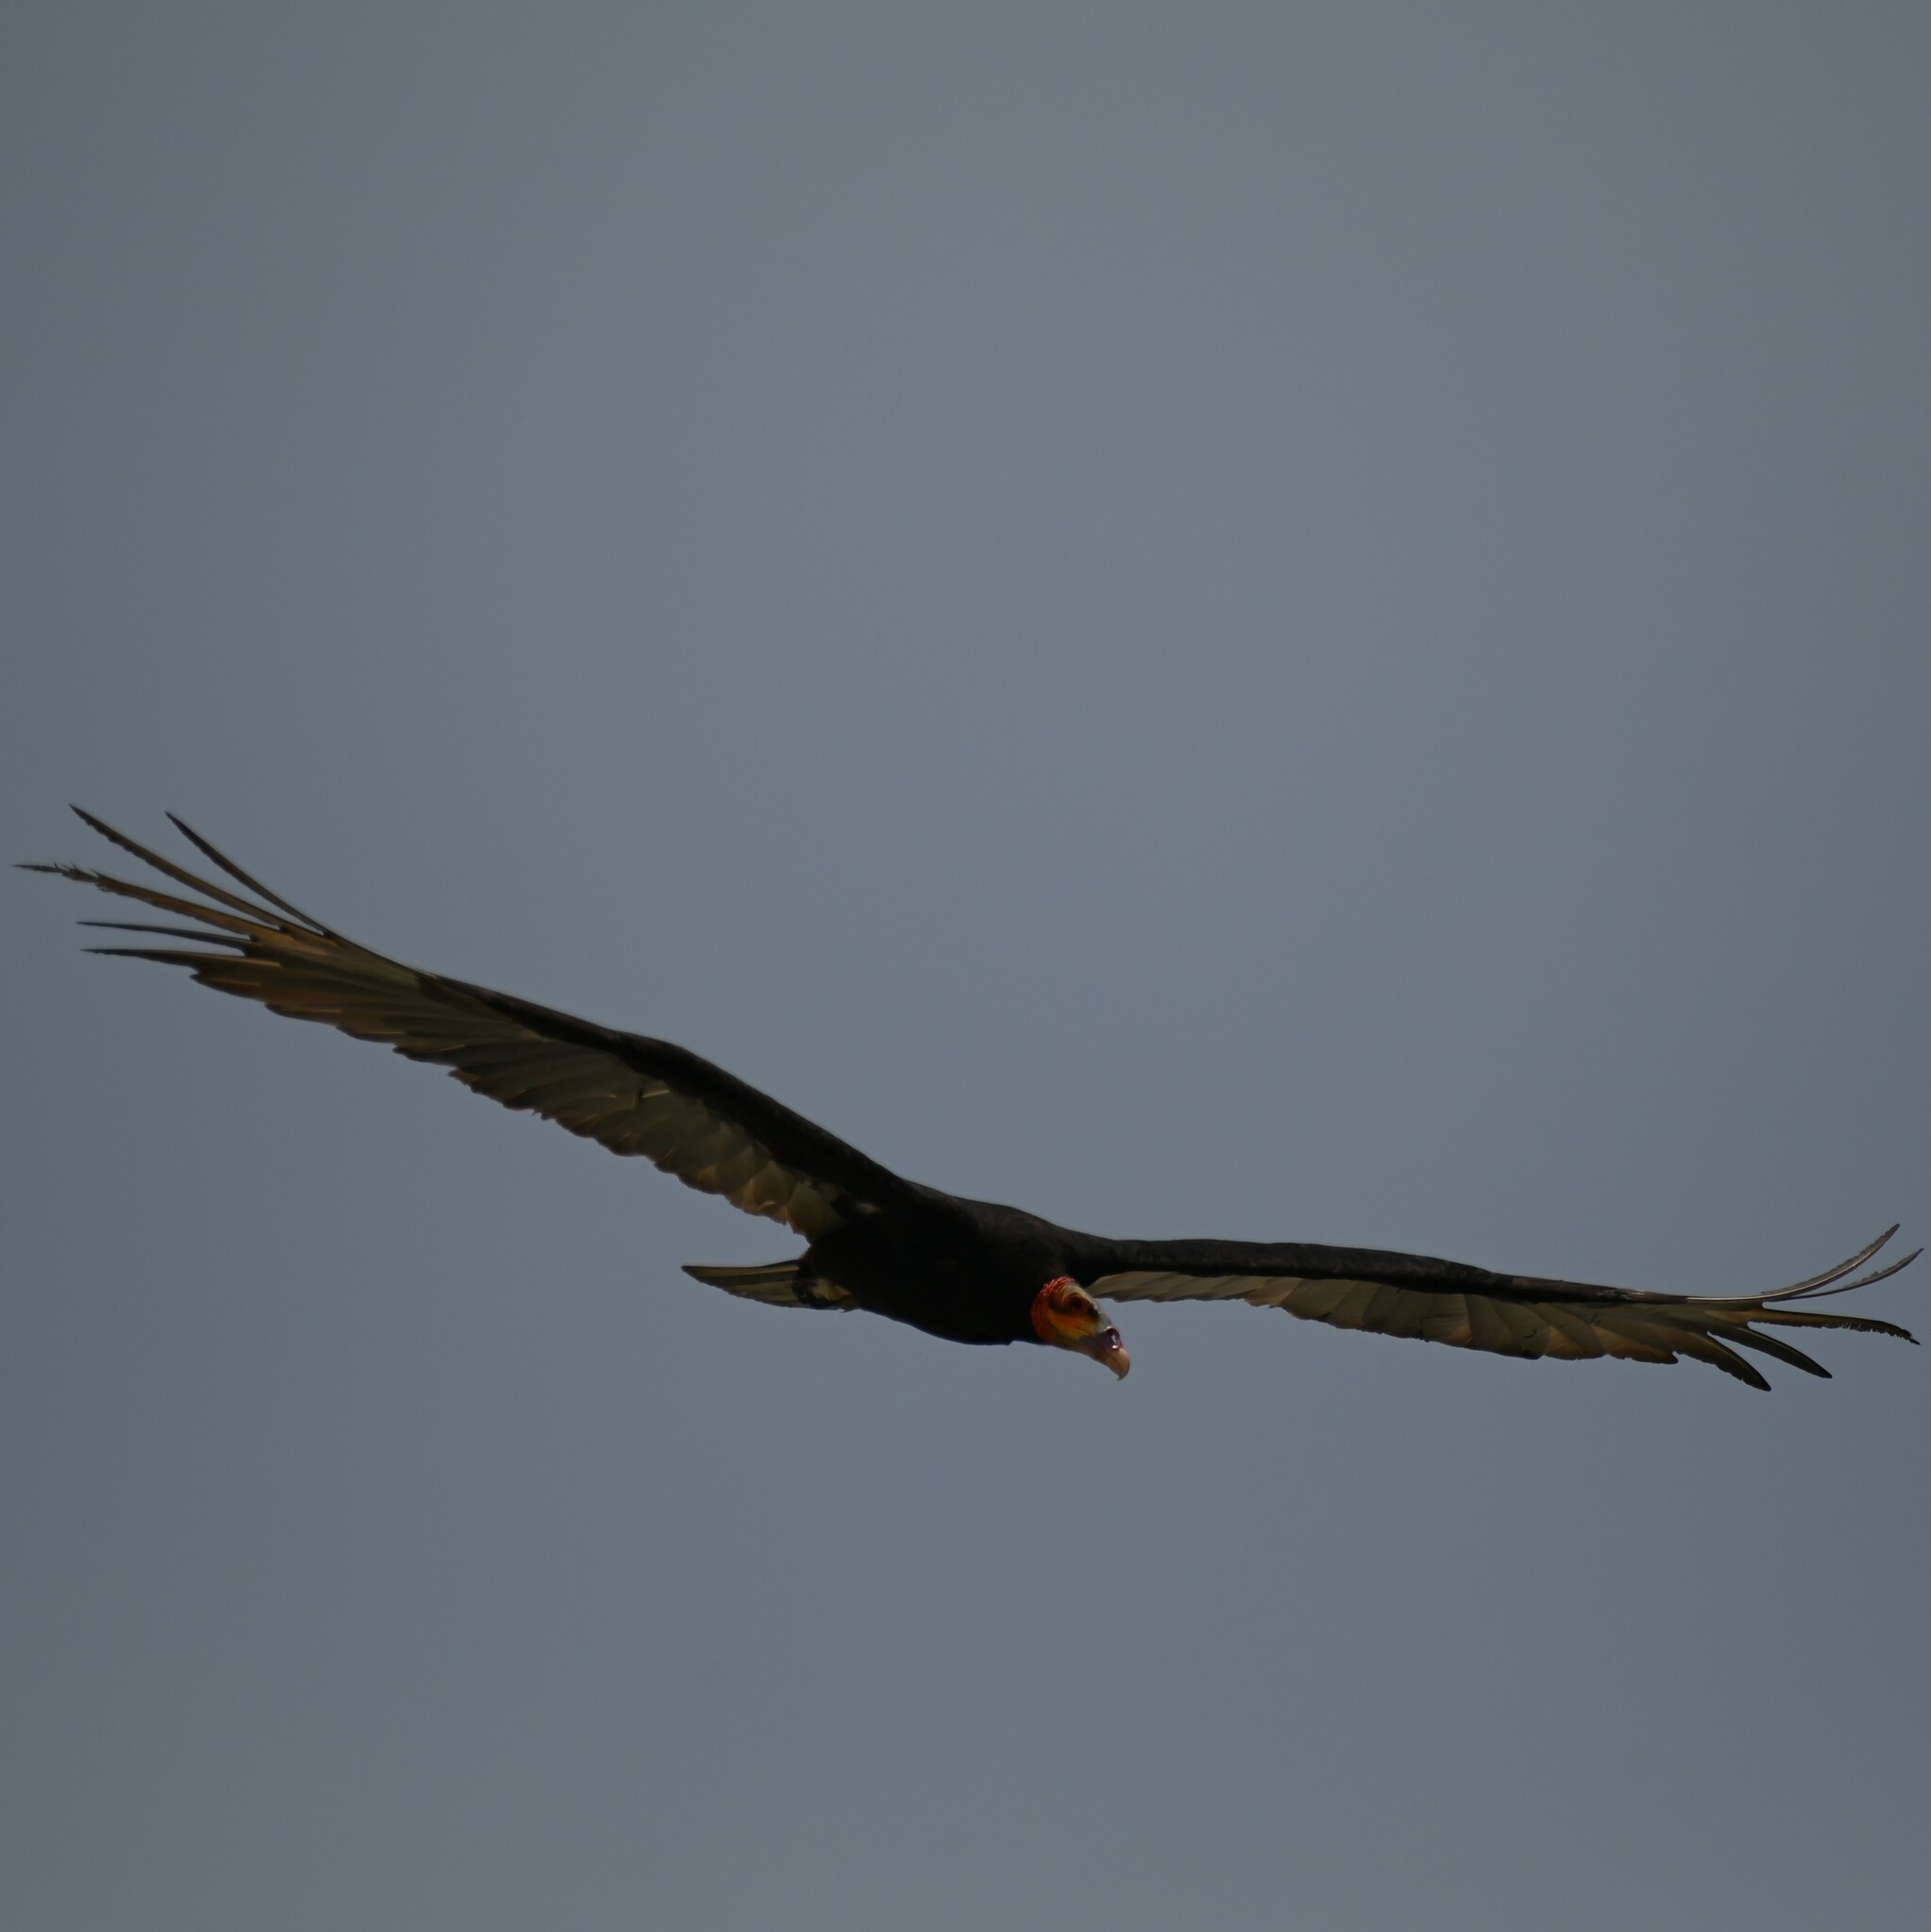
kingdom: Animalia
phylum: Chordata
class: Aves
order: Accipitriformes
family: Cathartidae
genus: Cathartes
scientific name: Cathartes burrovianus
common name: Lesser yellow-headed vulture
